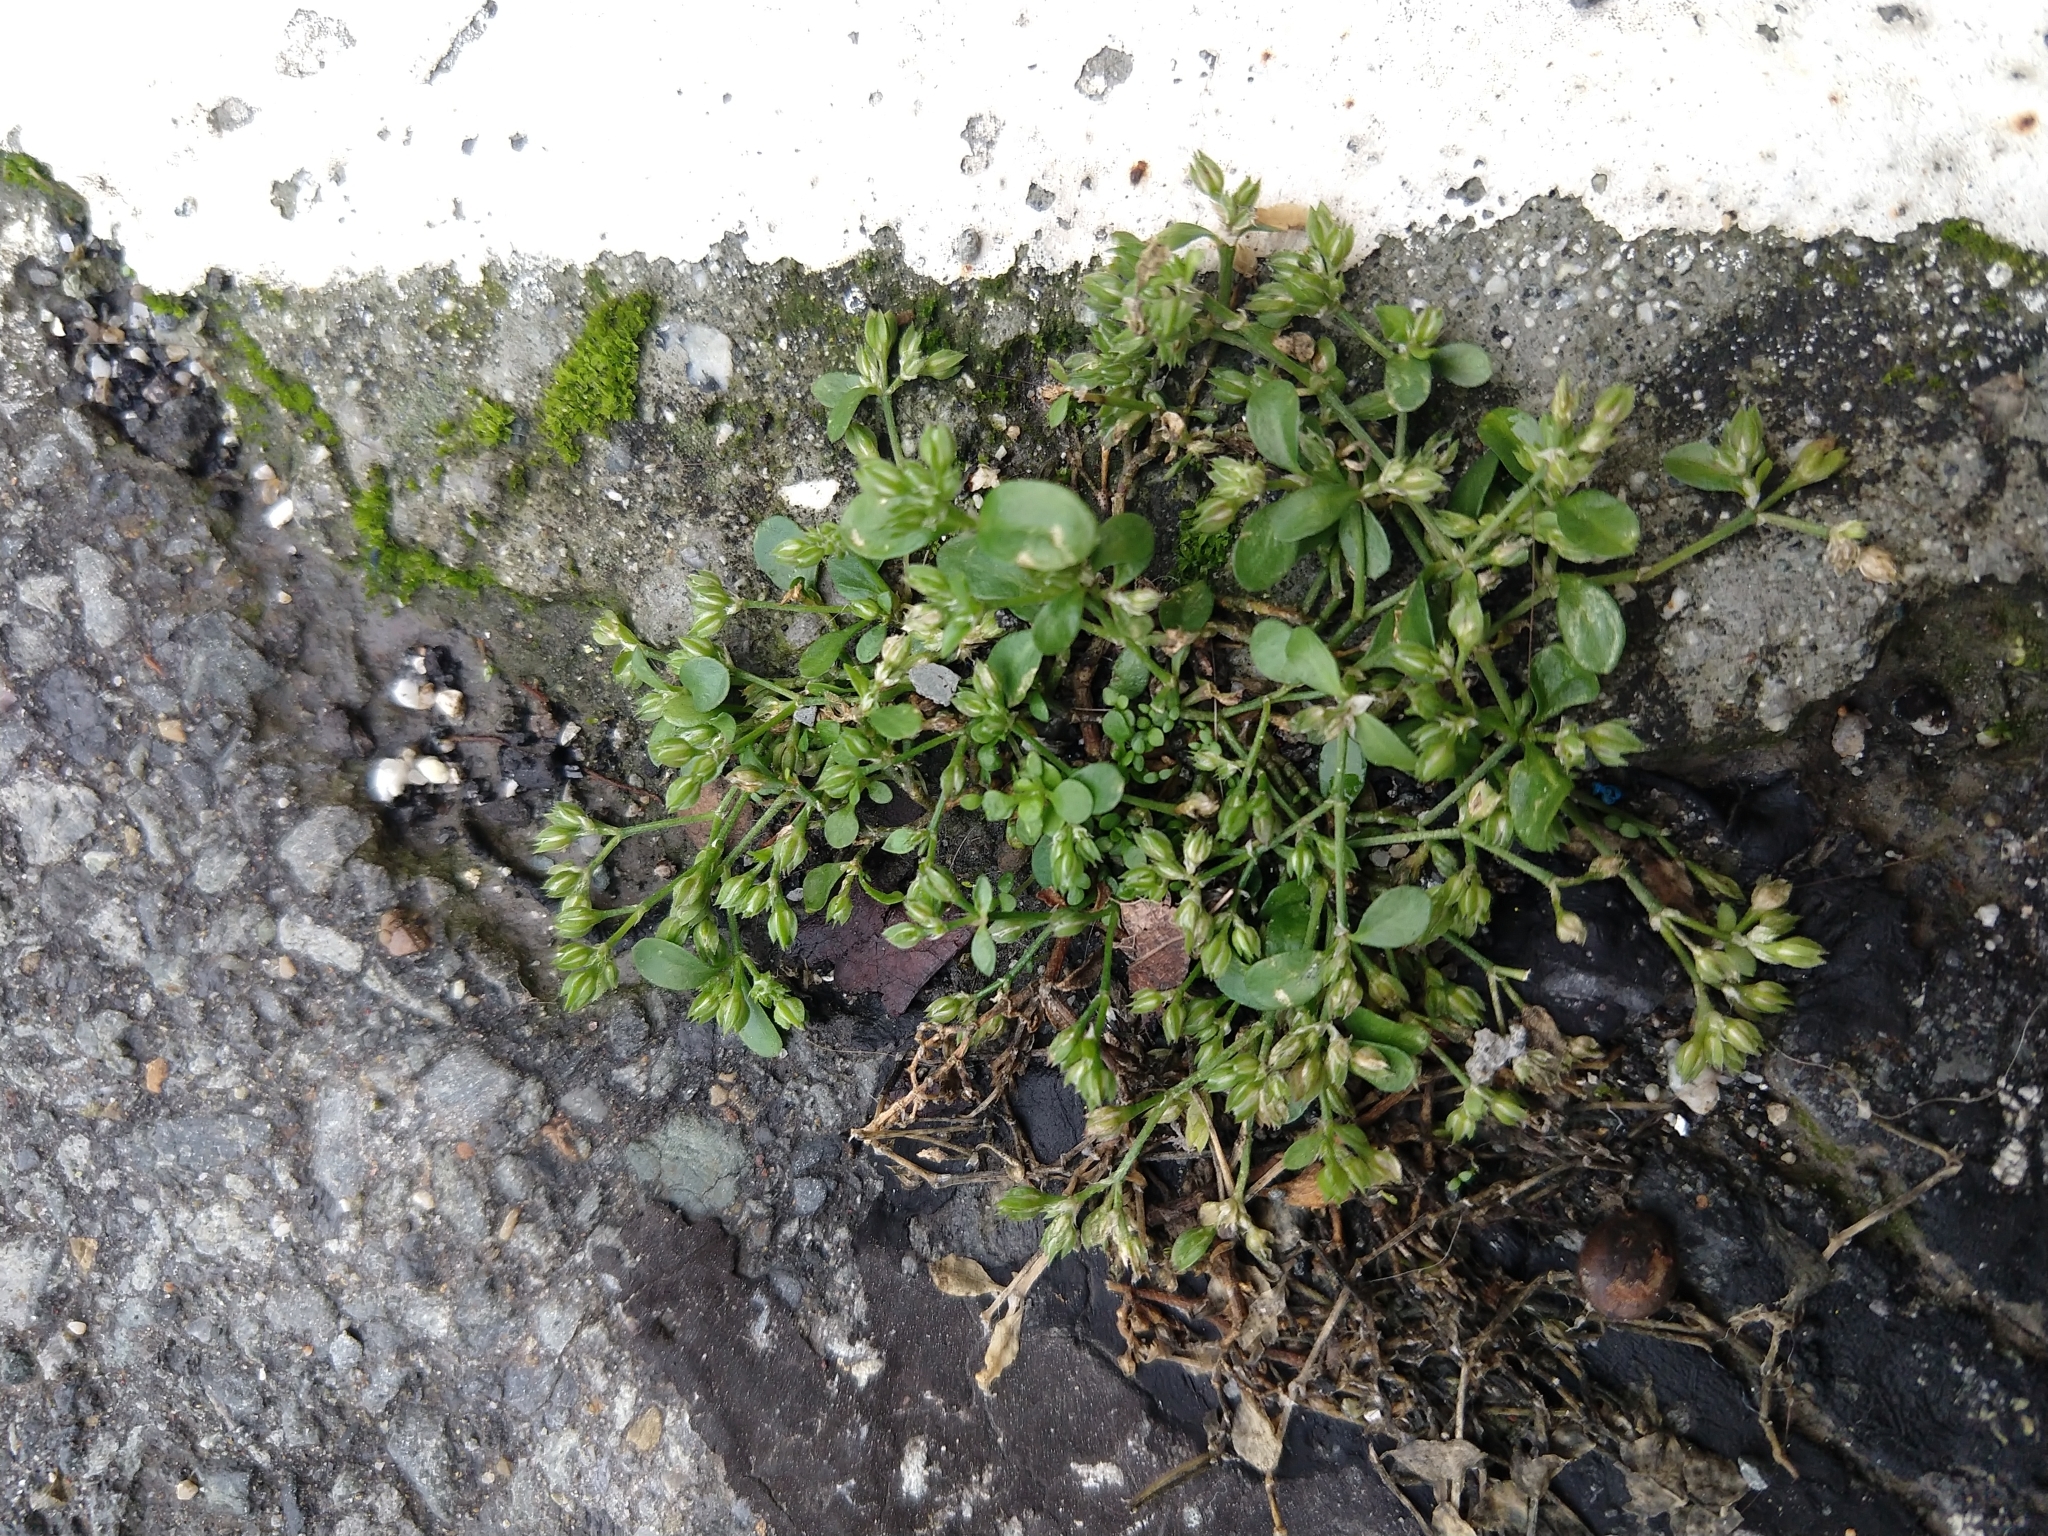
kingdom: Plantae
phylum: Tracheophyta
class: Magnoliopsida
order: Caryophyllales
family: Caryophyllaceae
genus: Polycarpon
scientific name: Polycarpon tetraphyllum
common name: Four-leaved all-seed
